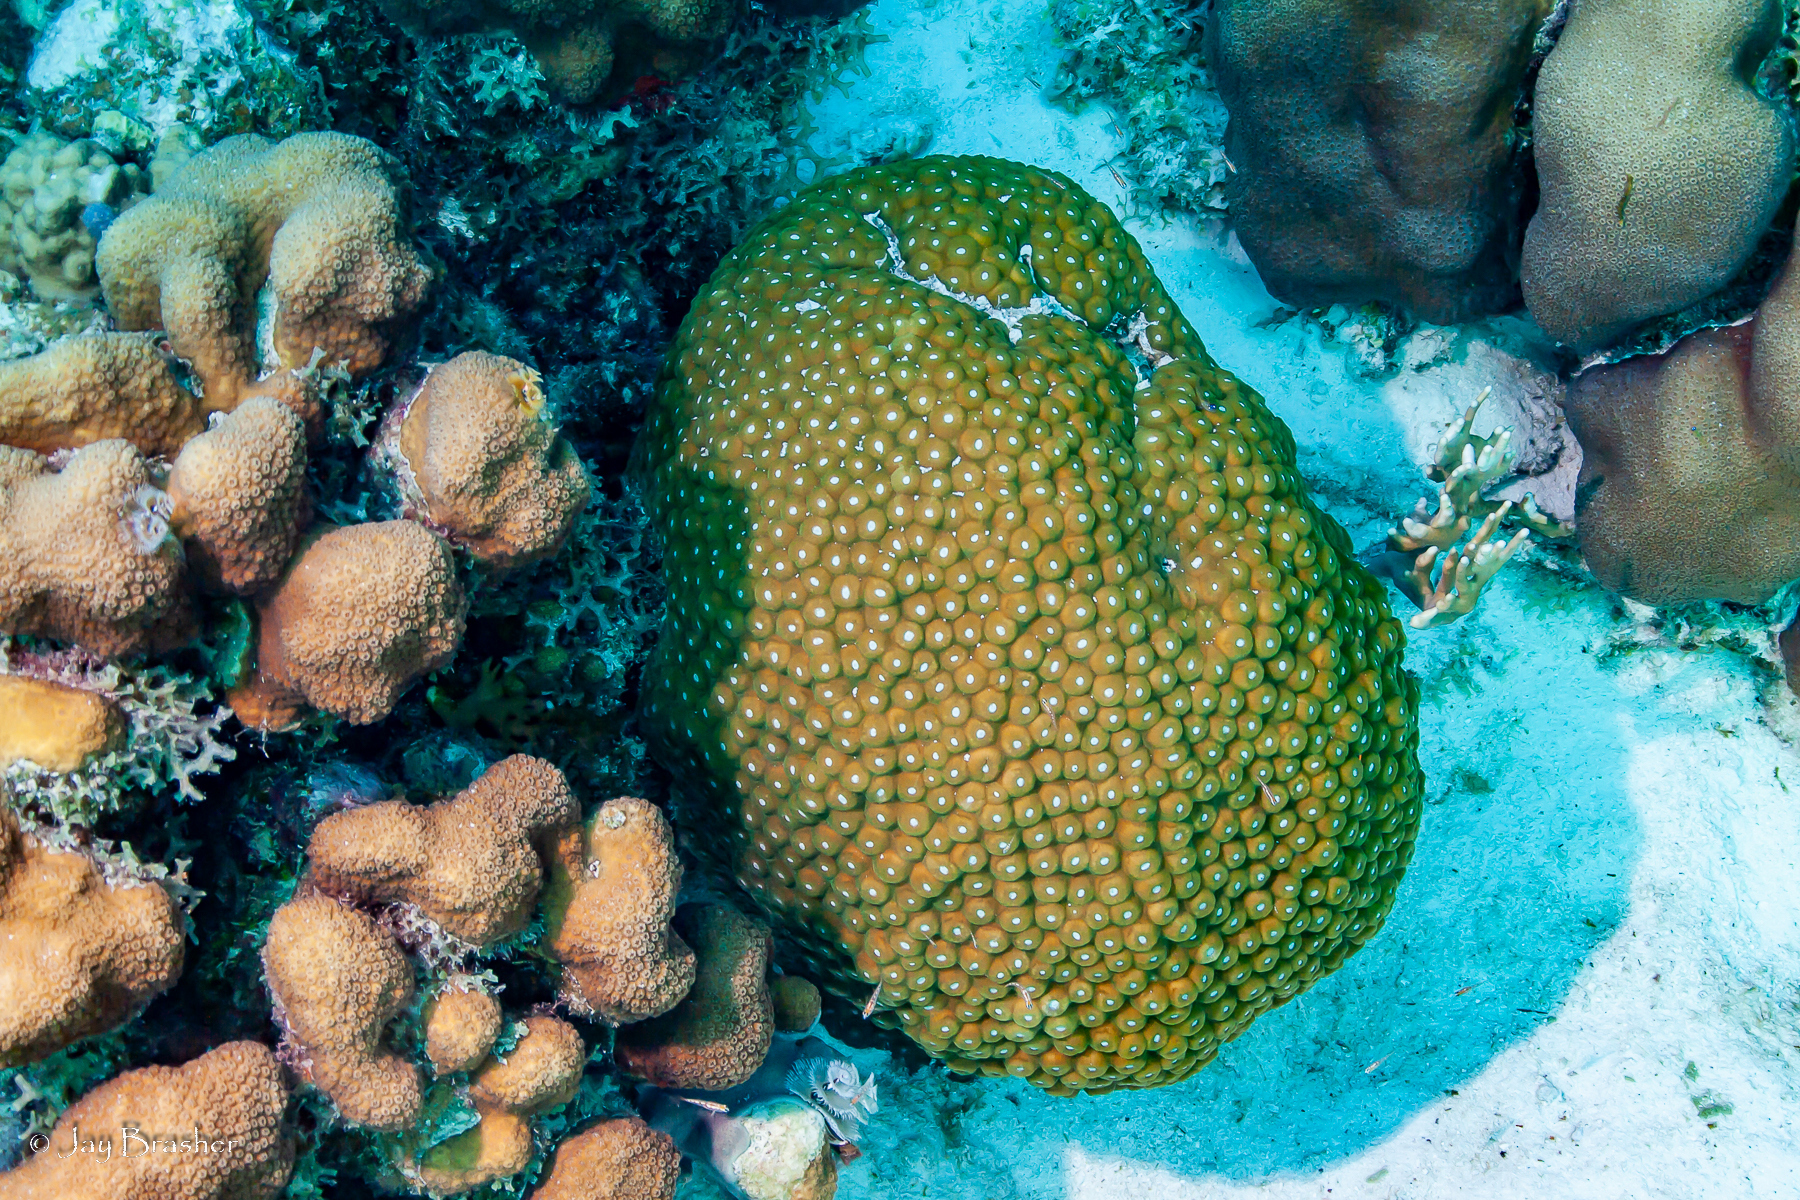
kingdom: Animalia
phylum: Cnidaria
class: Anthozoa
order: Scleractinia
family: Montastraeidae
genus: Montastraea
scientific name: Montastraea cavernosa
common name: Great star coral
